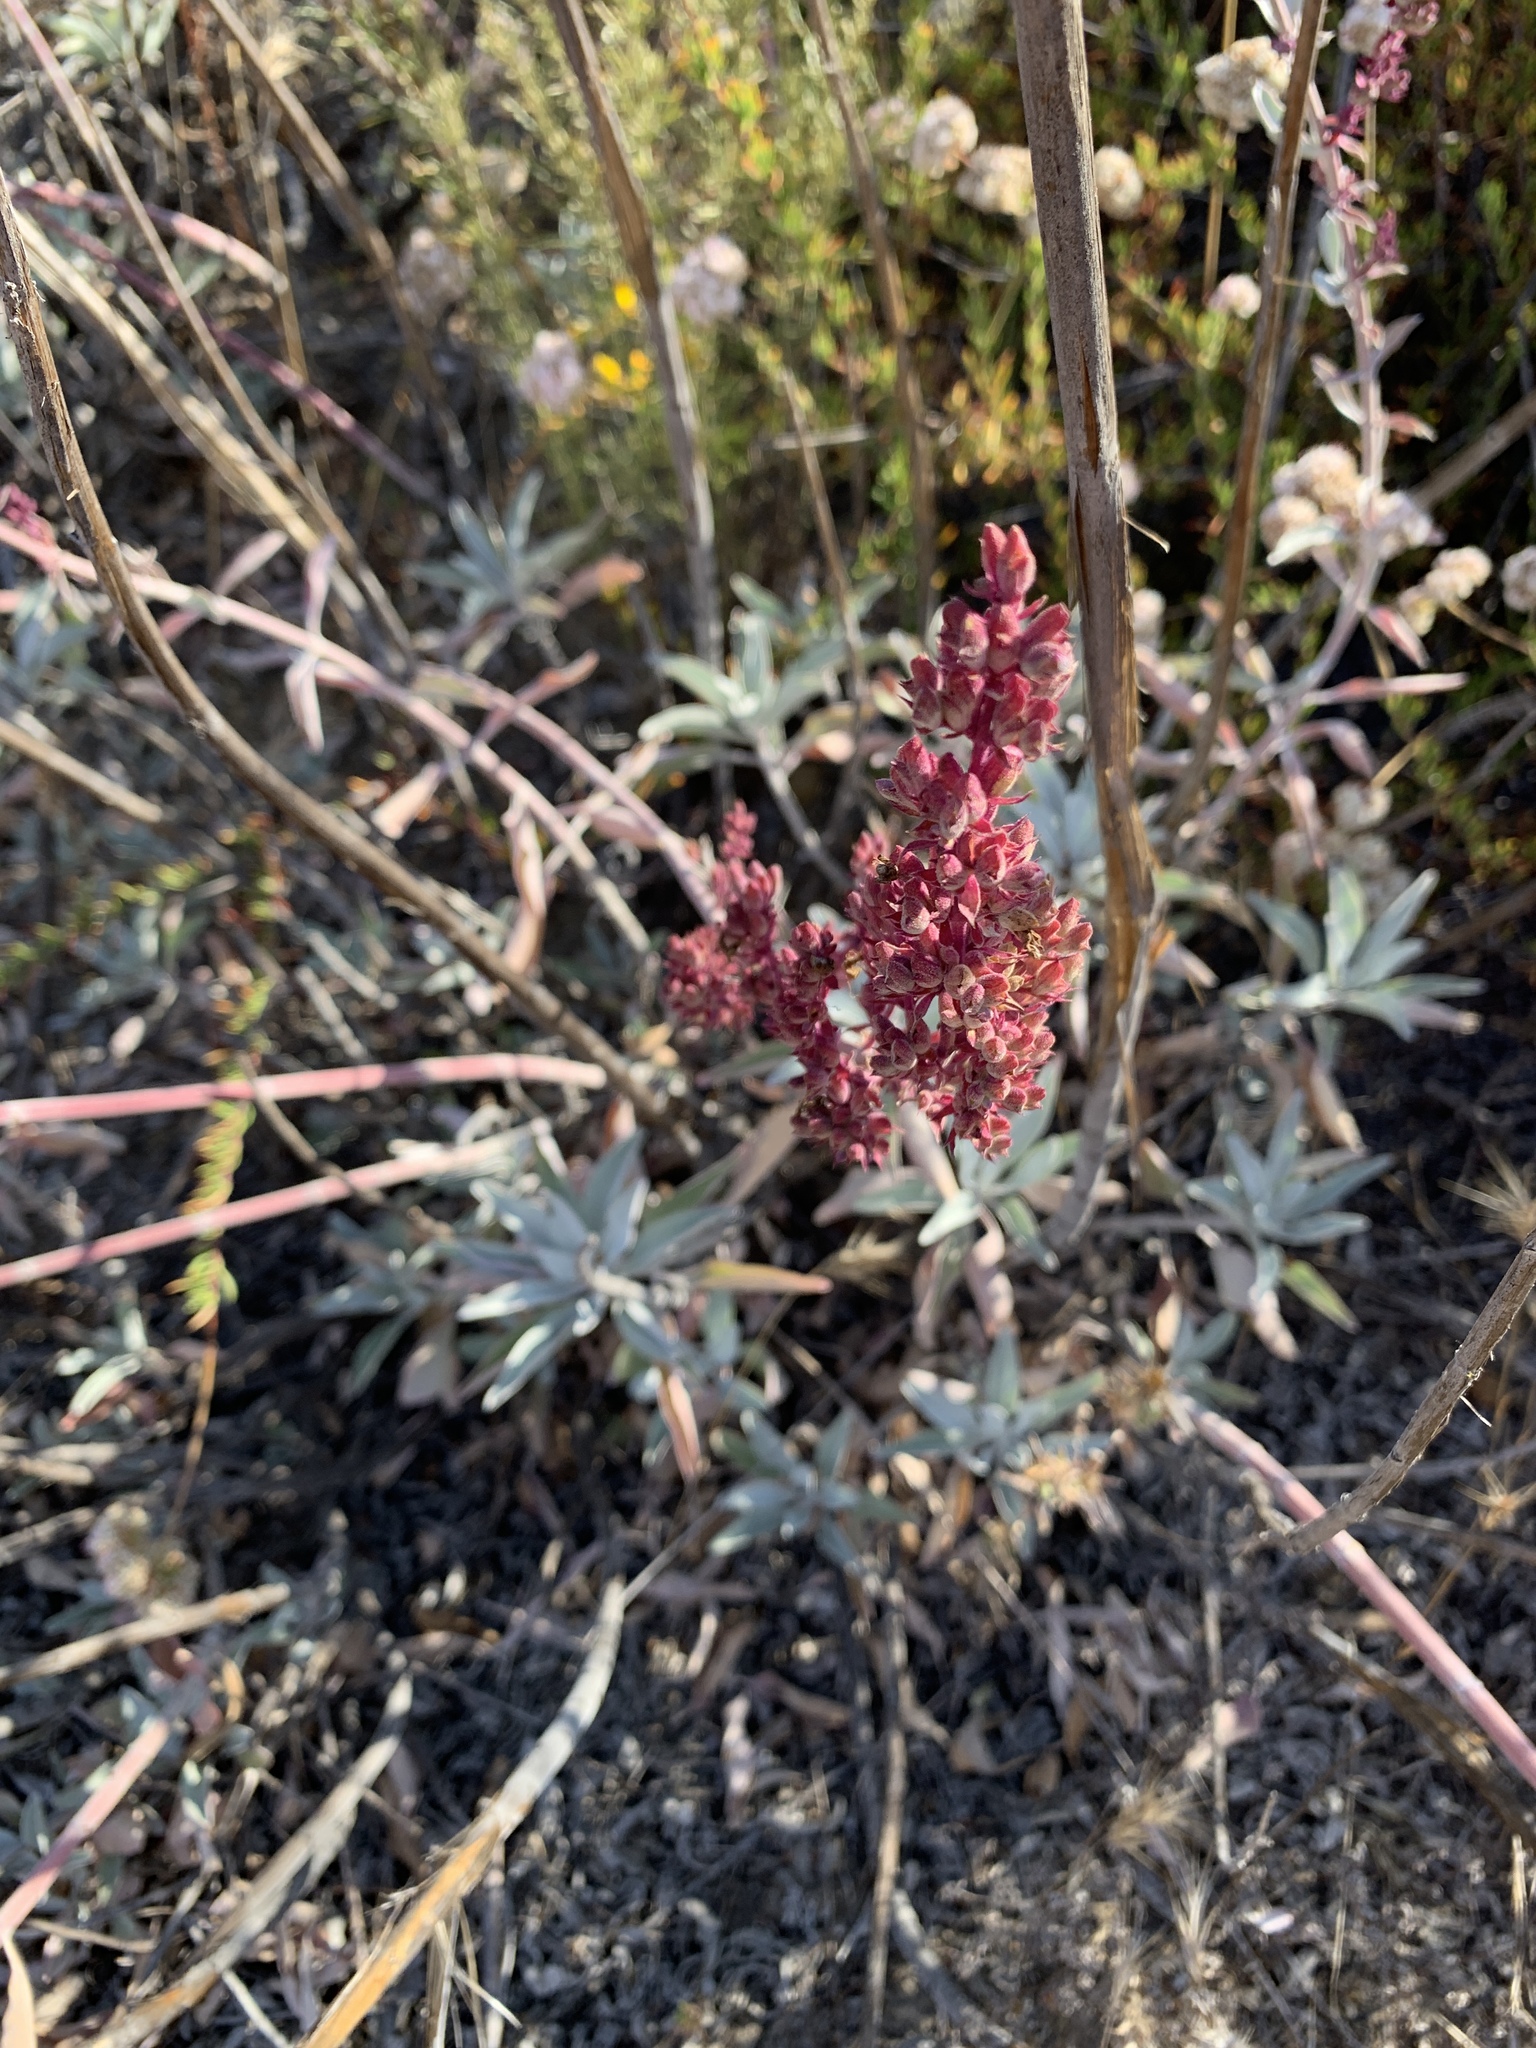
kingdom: Plantae
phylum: Tracheophyta
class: Magnoliopsida
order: Lamiales
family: Lamiaceae
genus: Salvia
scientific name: Salvia apiana
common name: White sage
